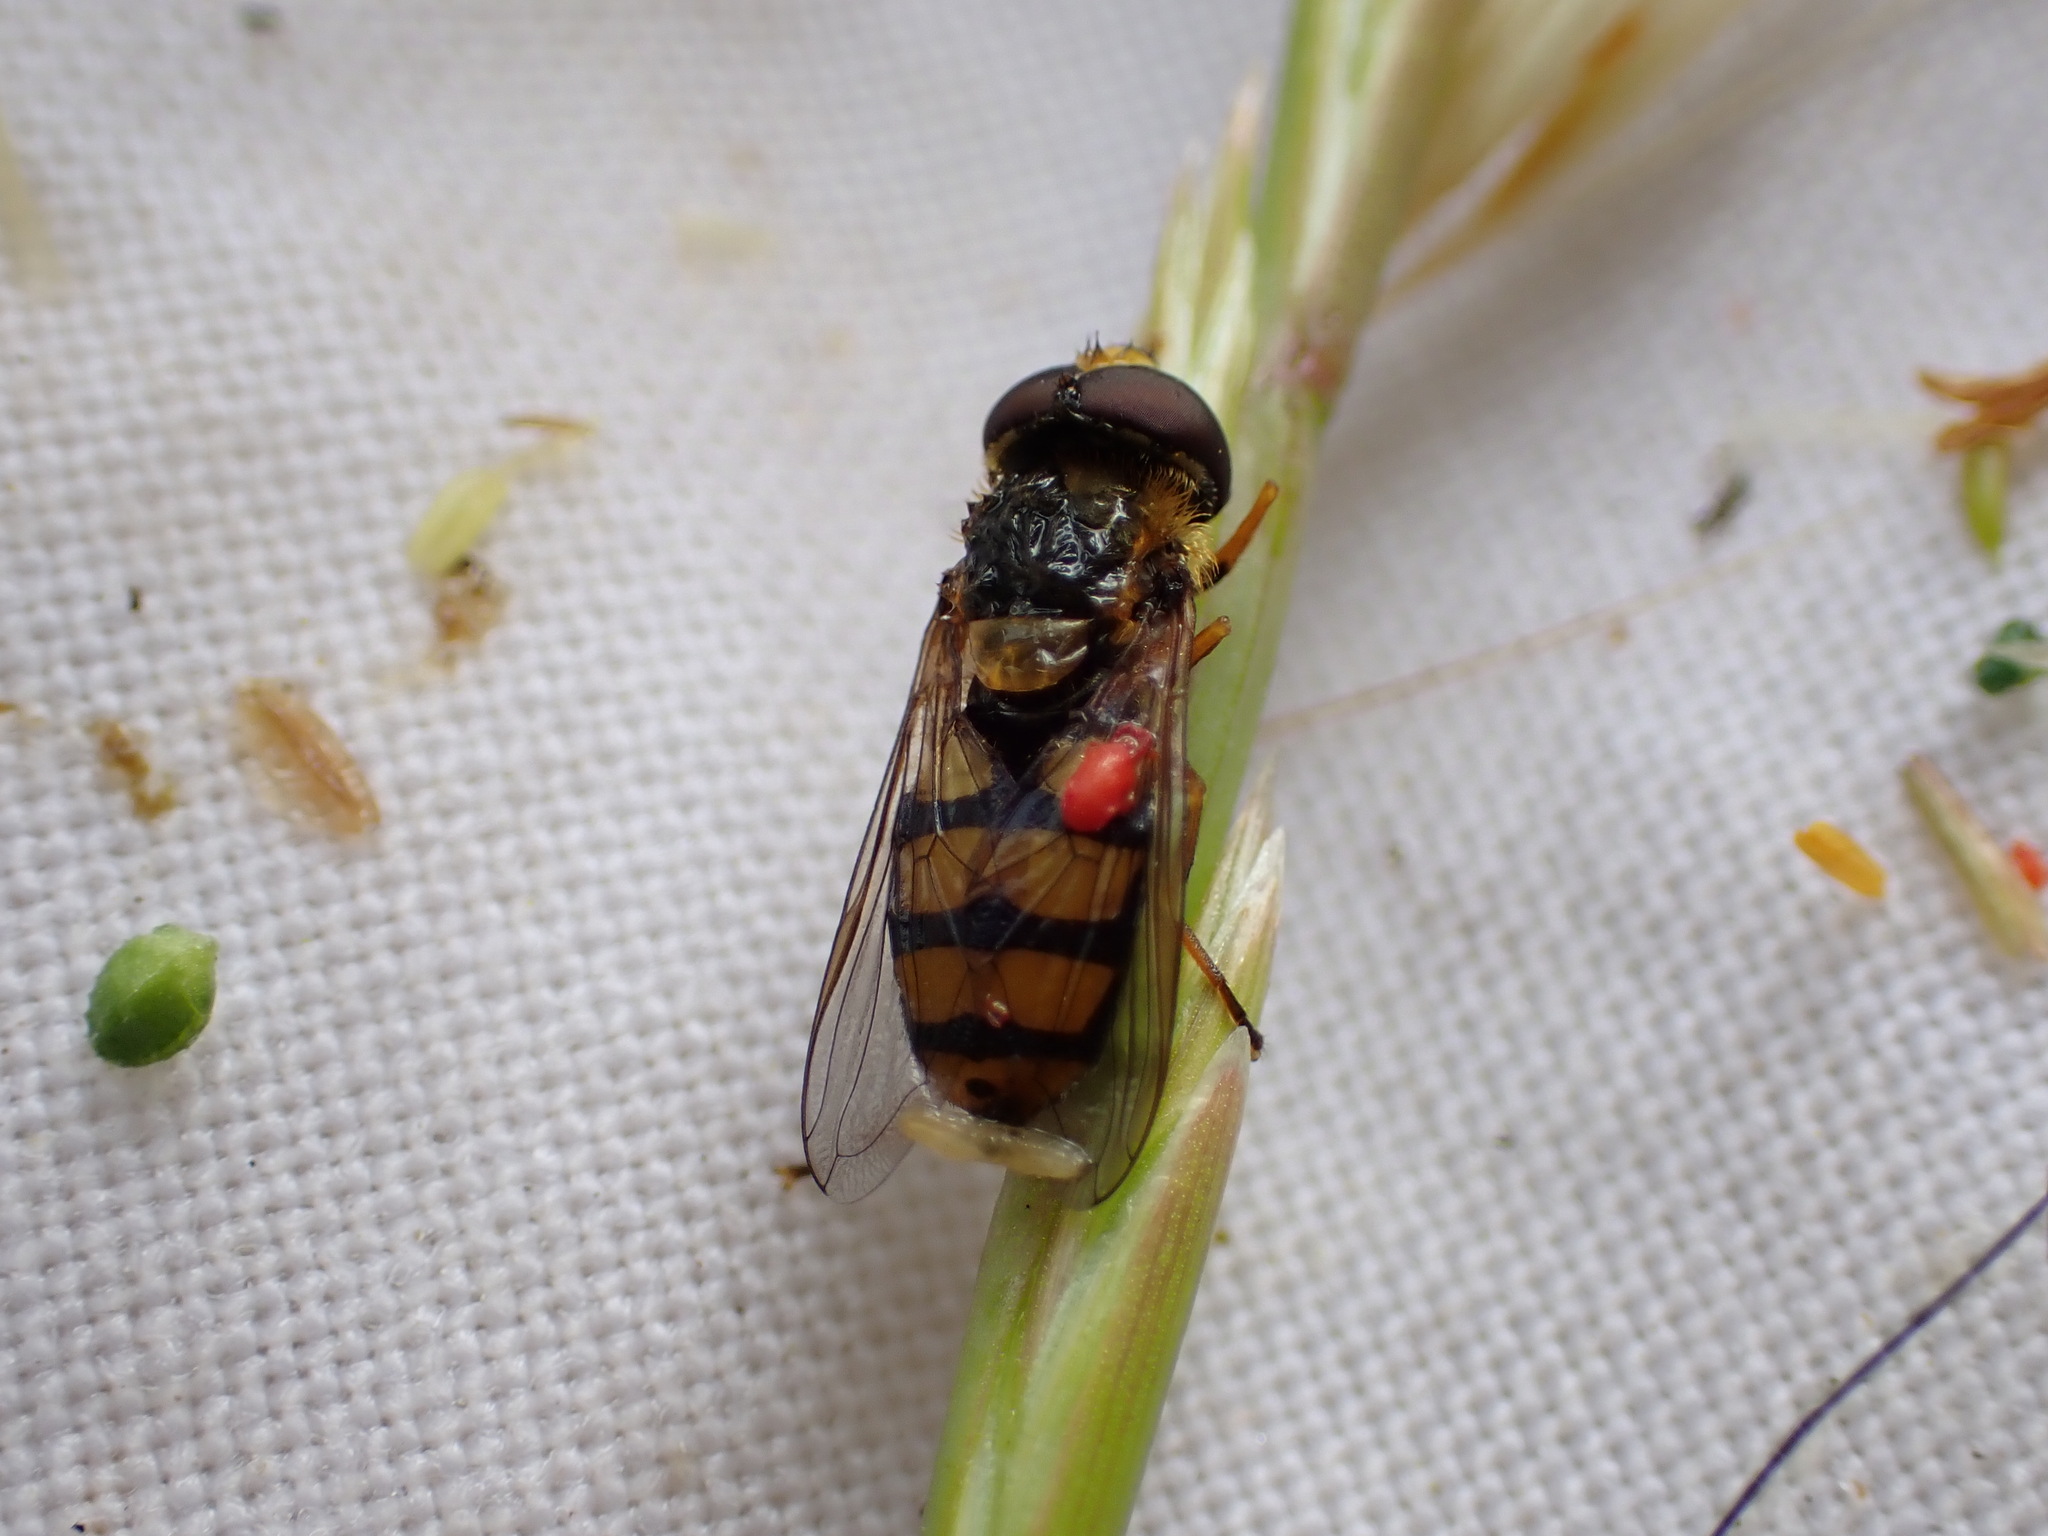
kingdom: Animalia
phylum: Arthropoda
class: Insecta
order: Diptera
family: Syrphidae
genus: Eupeodes
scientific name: Eupeodes latifasciatus
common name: Variable aphideater
